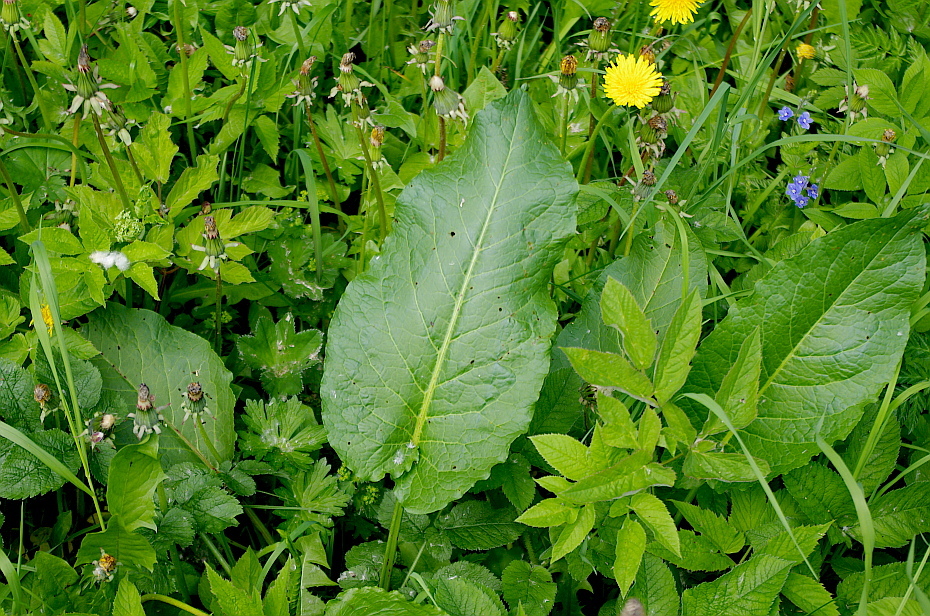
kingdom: Plantae
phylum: Tracheophyta
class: Magnoliopsida
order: Caryophyllales
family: Polygonaceae
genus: Rumex
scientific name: Rumex obtusifolius
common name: Bitter dock
